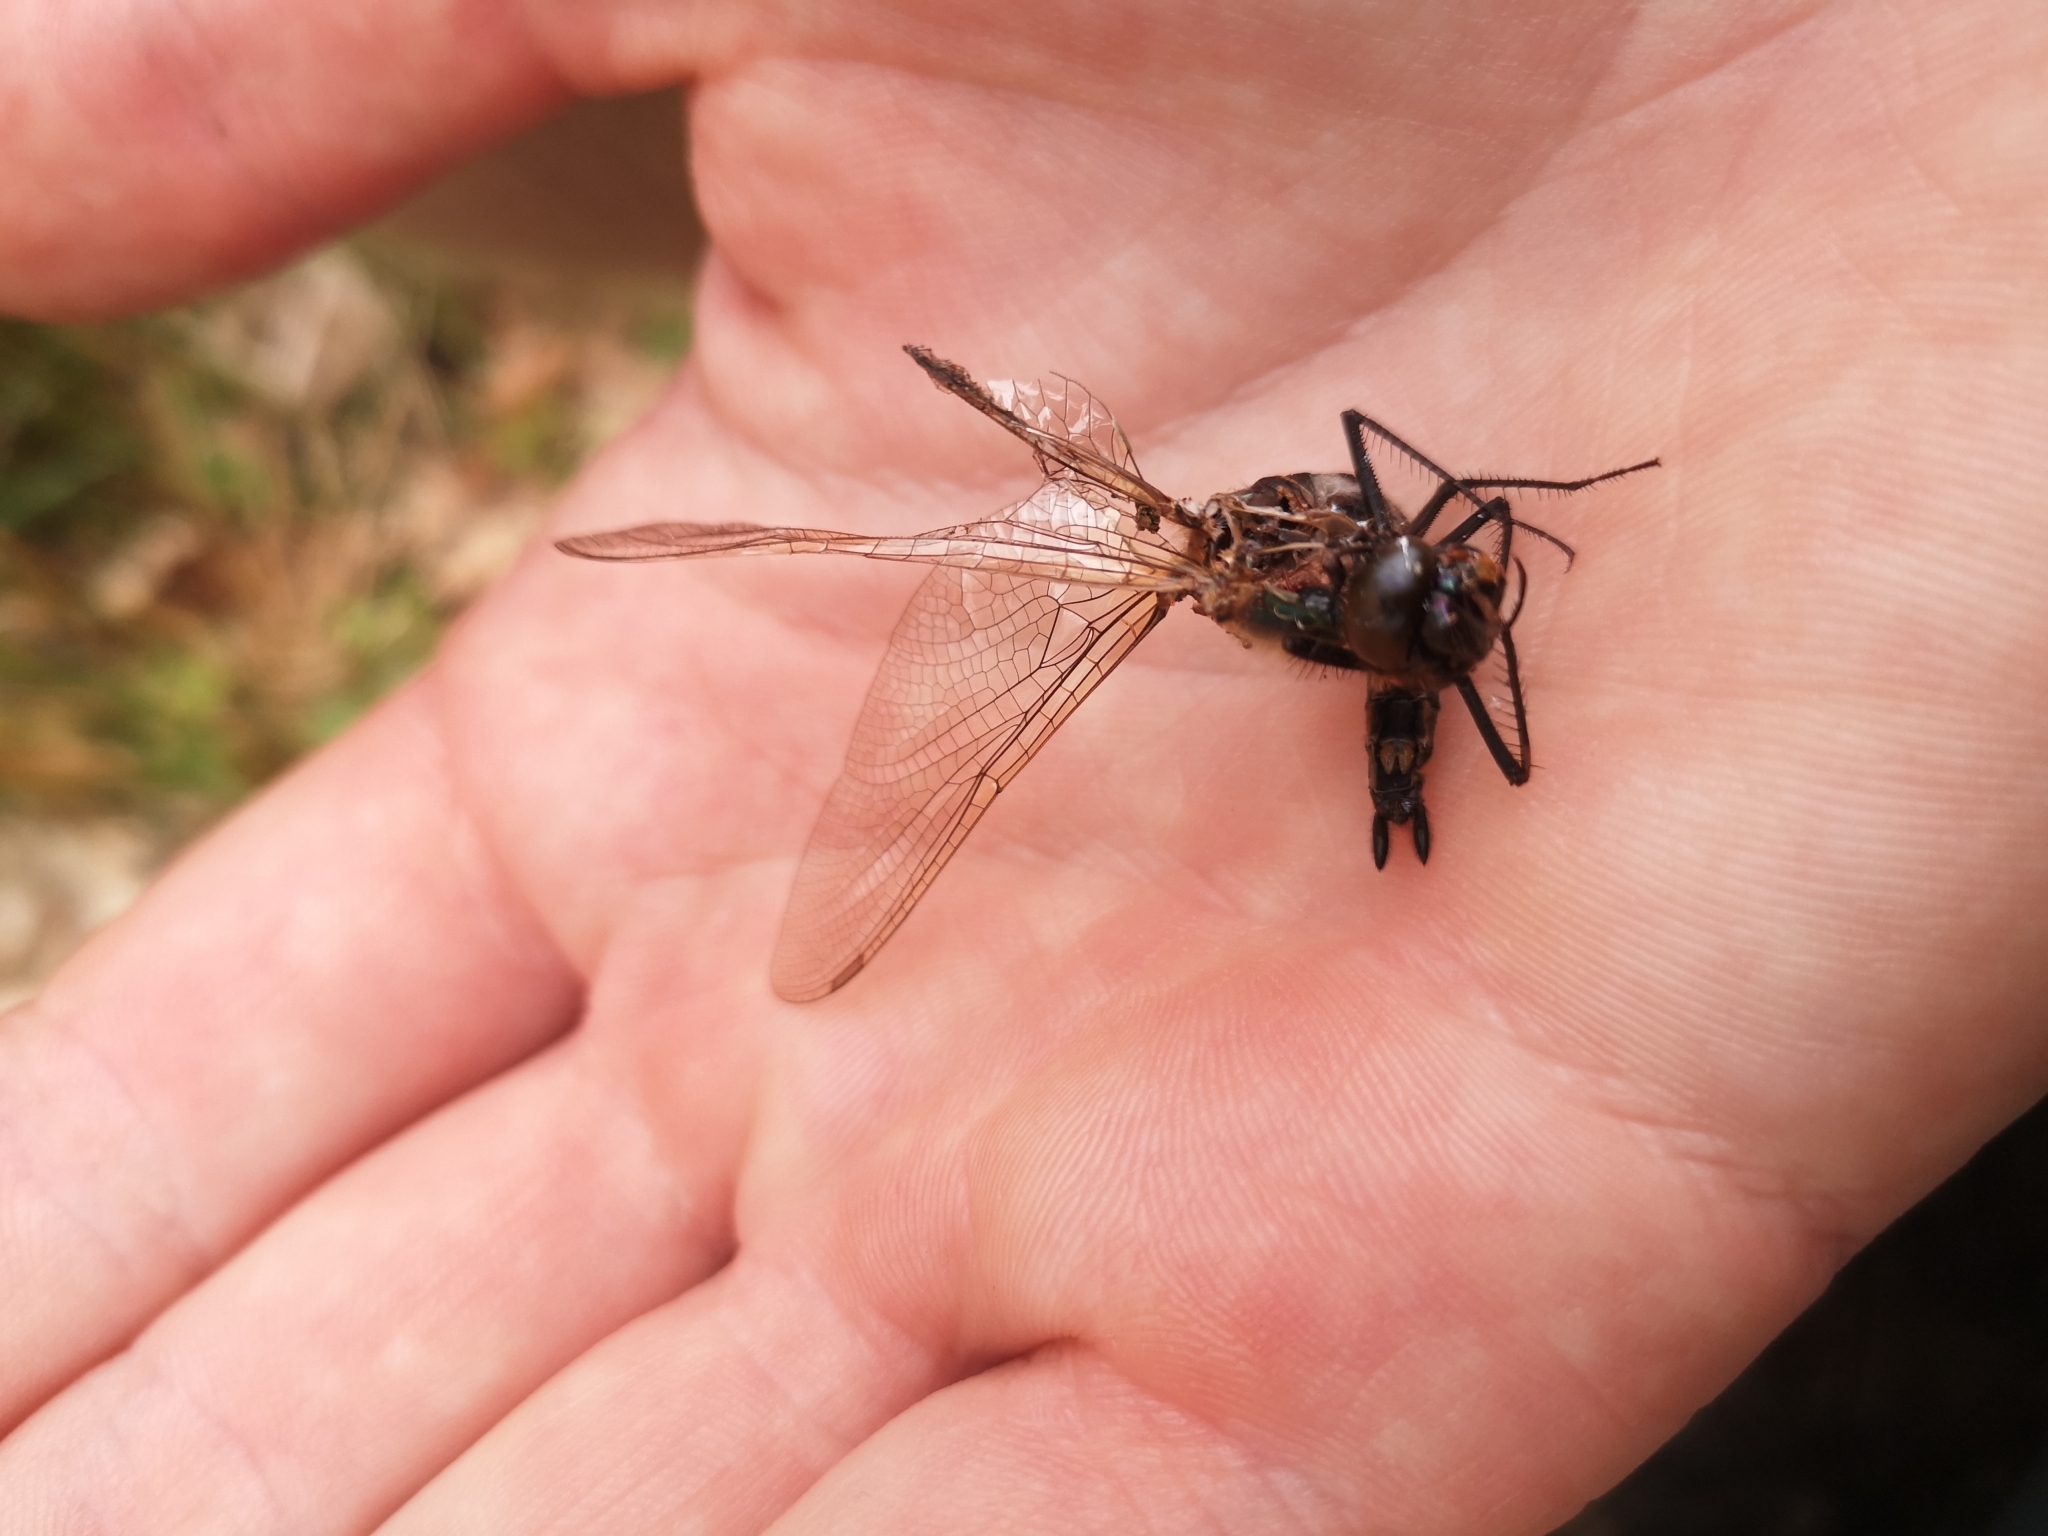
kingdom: Animalia
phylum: Arthropoda
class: Insecta
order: Odonata
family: Corduliidae
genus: Cordulia
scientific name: Cordulia aenea
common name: Downy emerald
